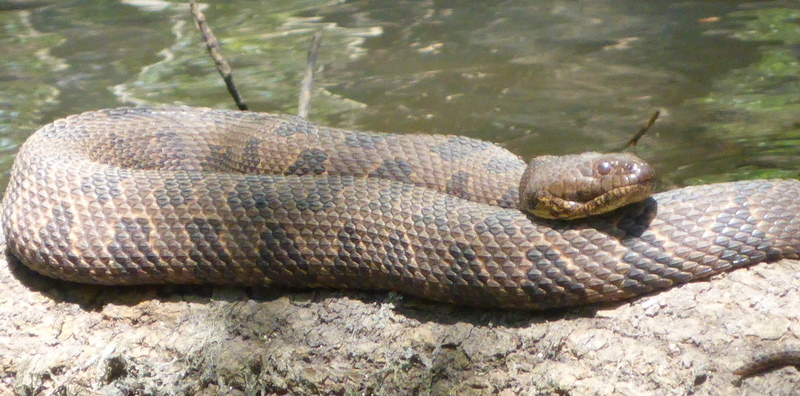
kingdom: Animalia
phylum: Chordata
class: Squamata
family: Colubridae
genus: Nerodia
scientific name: Nerodia taxispilota
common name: Brown water snake
